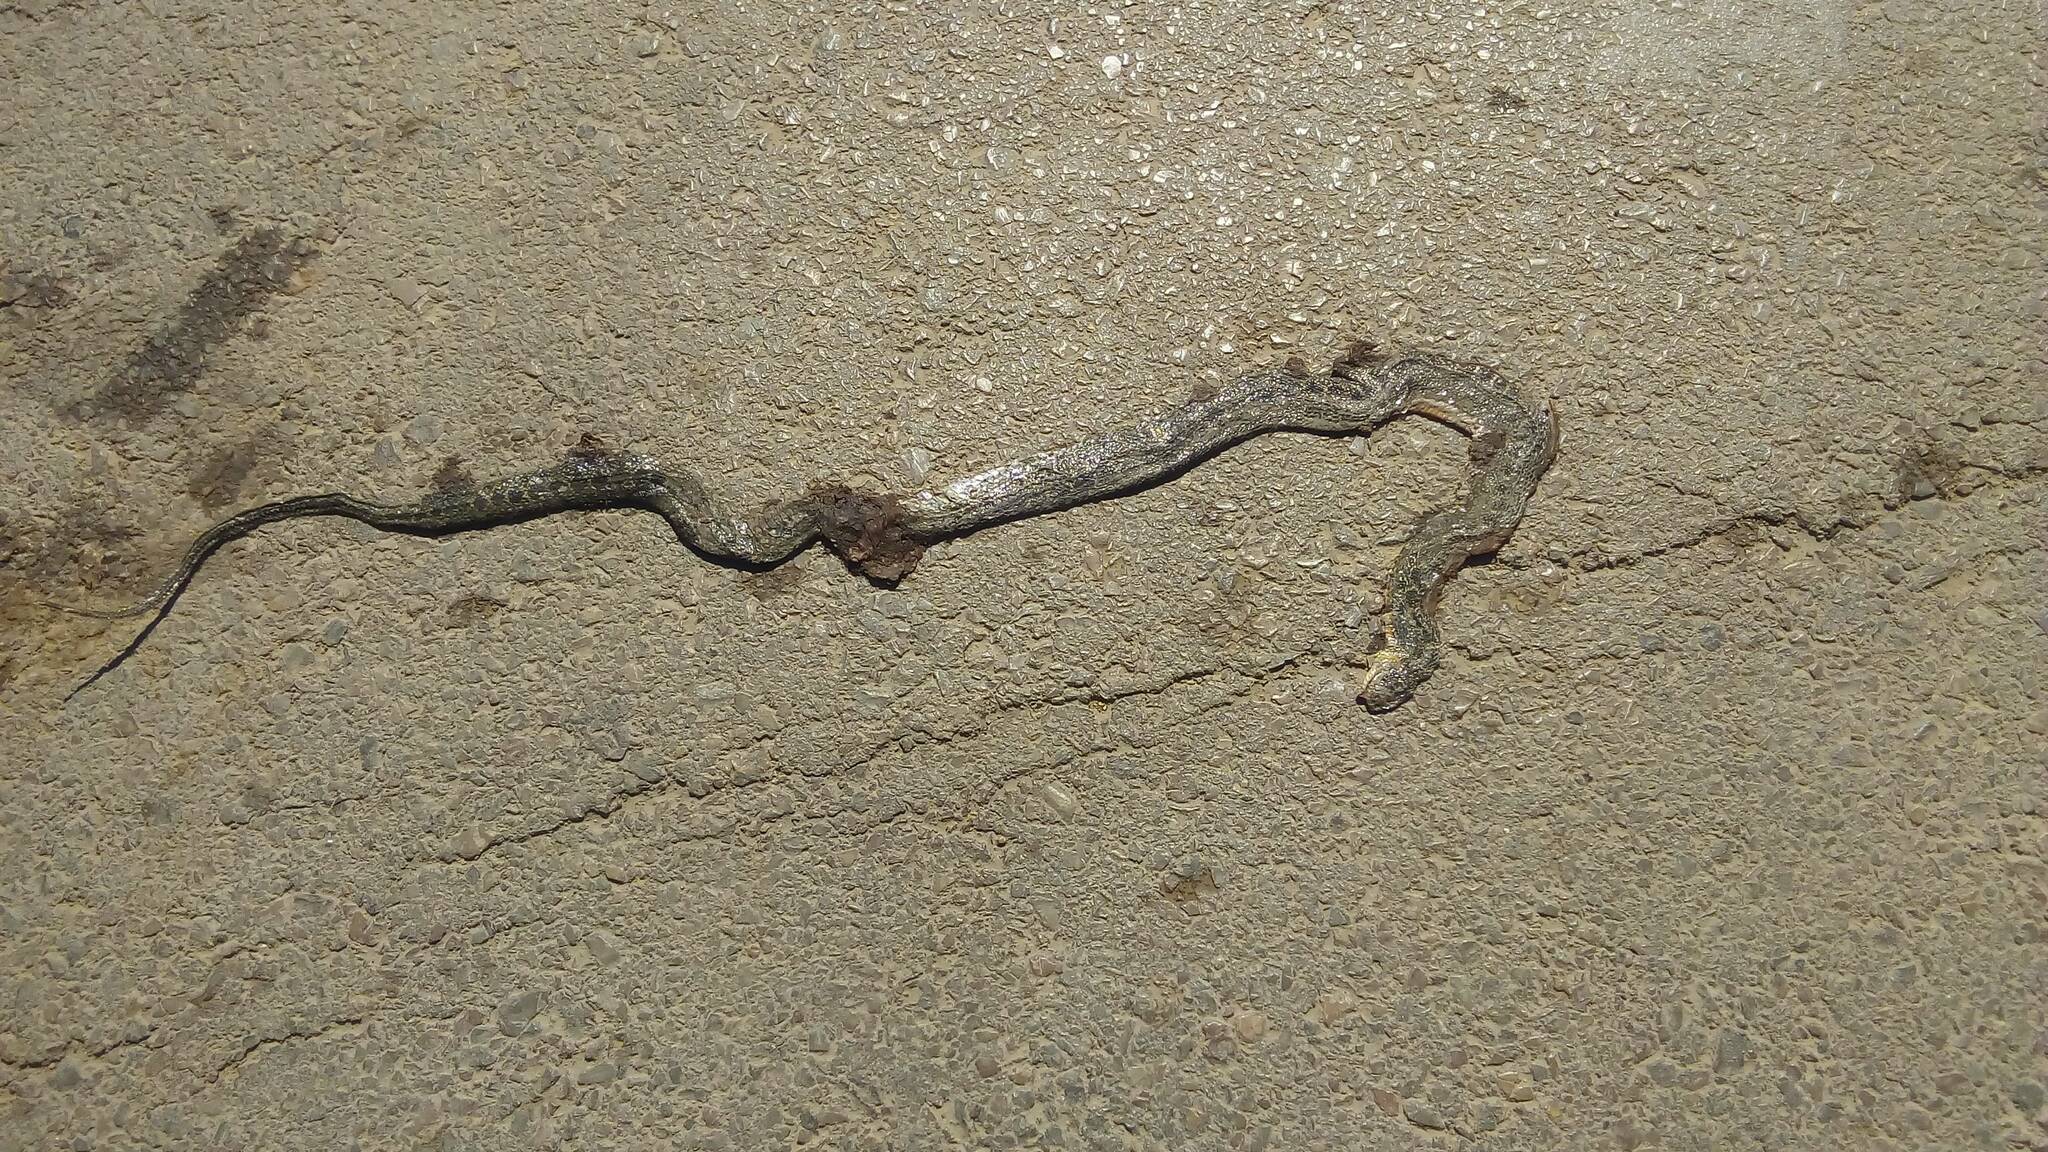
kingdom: Animalia
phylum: Chordata
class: Squamata
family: Colubridae
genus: Hemorrhois
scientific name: Hemorrhois hippocrepis
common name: Horseshoe whip snake
